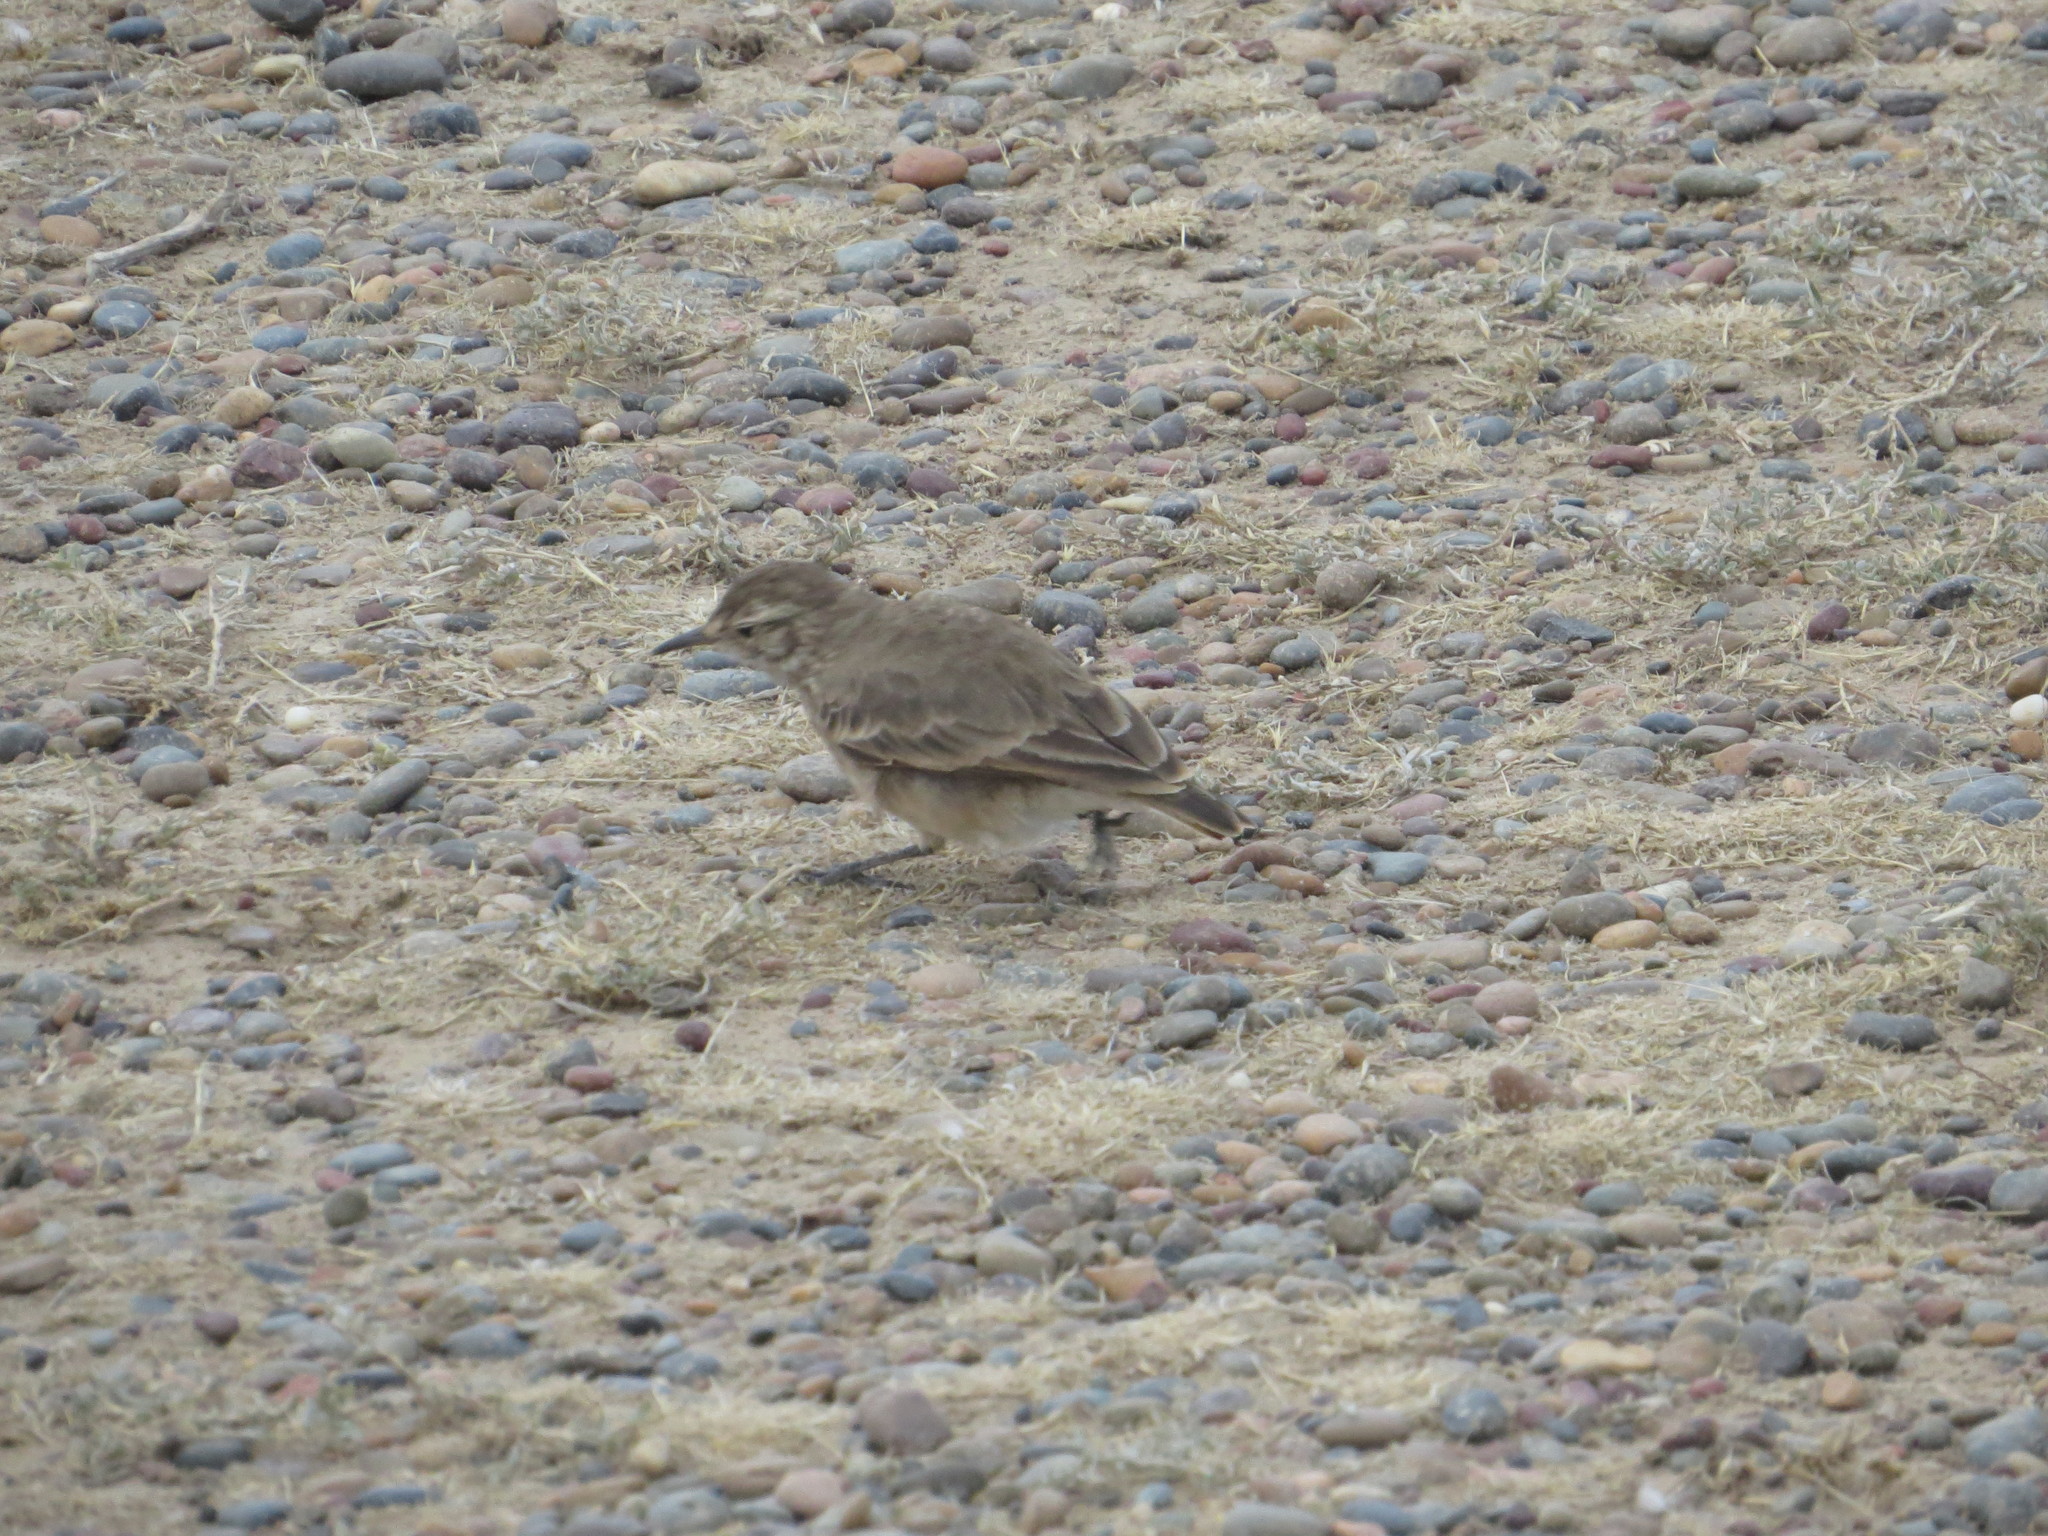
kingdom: Animalia
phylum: Chordata
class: Aves
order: Passeriformes
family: Furnariidae
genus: Geositta
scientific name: Geositta cunicularia
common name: Common miner
